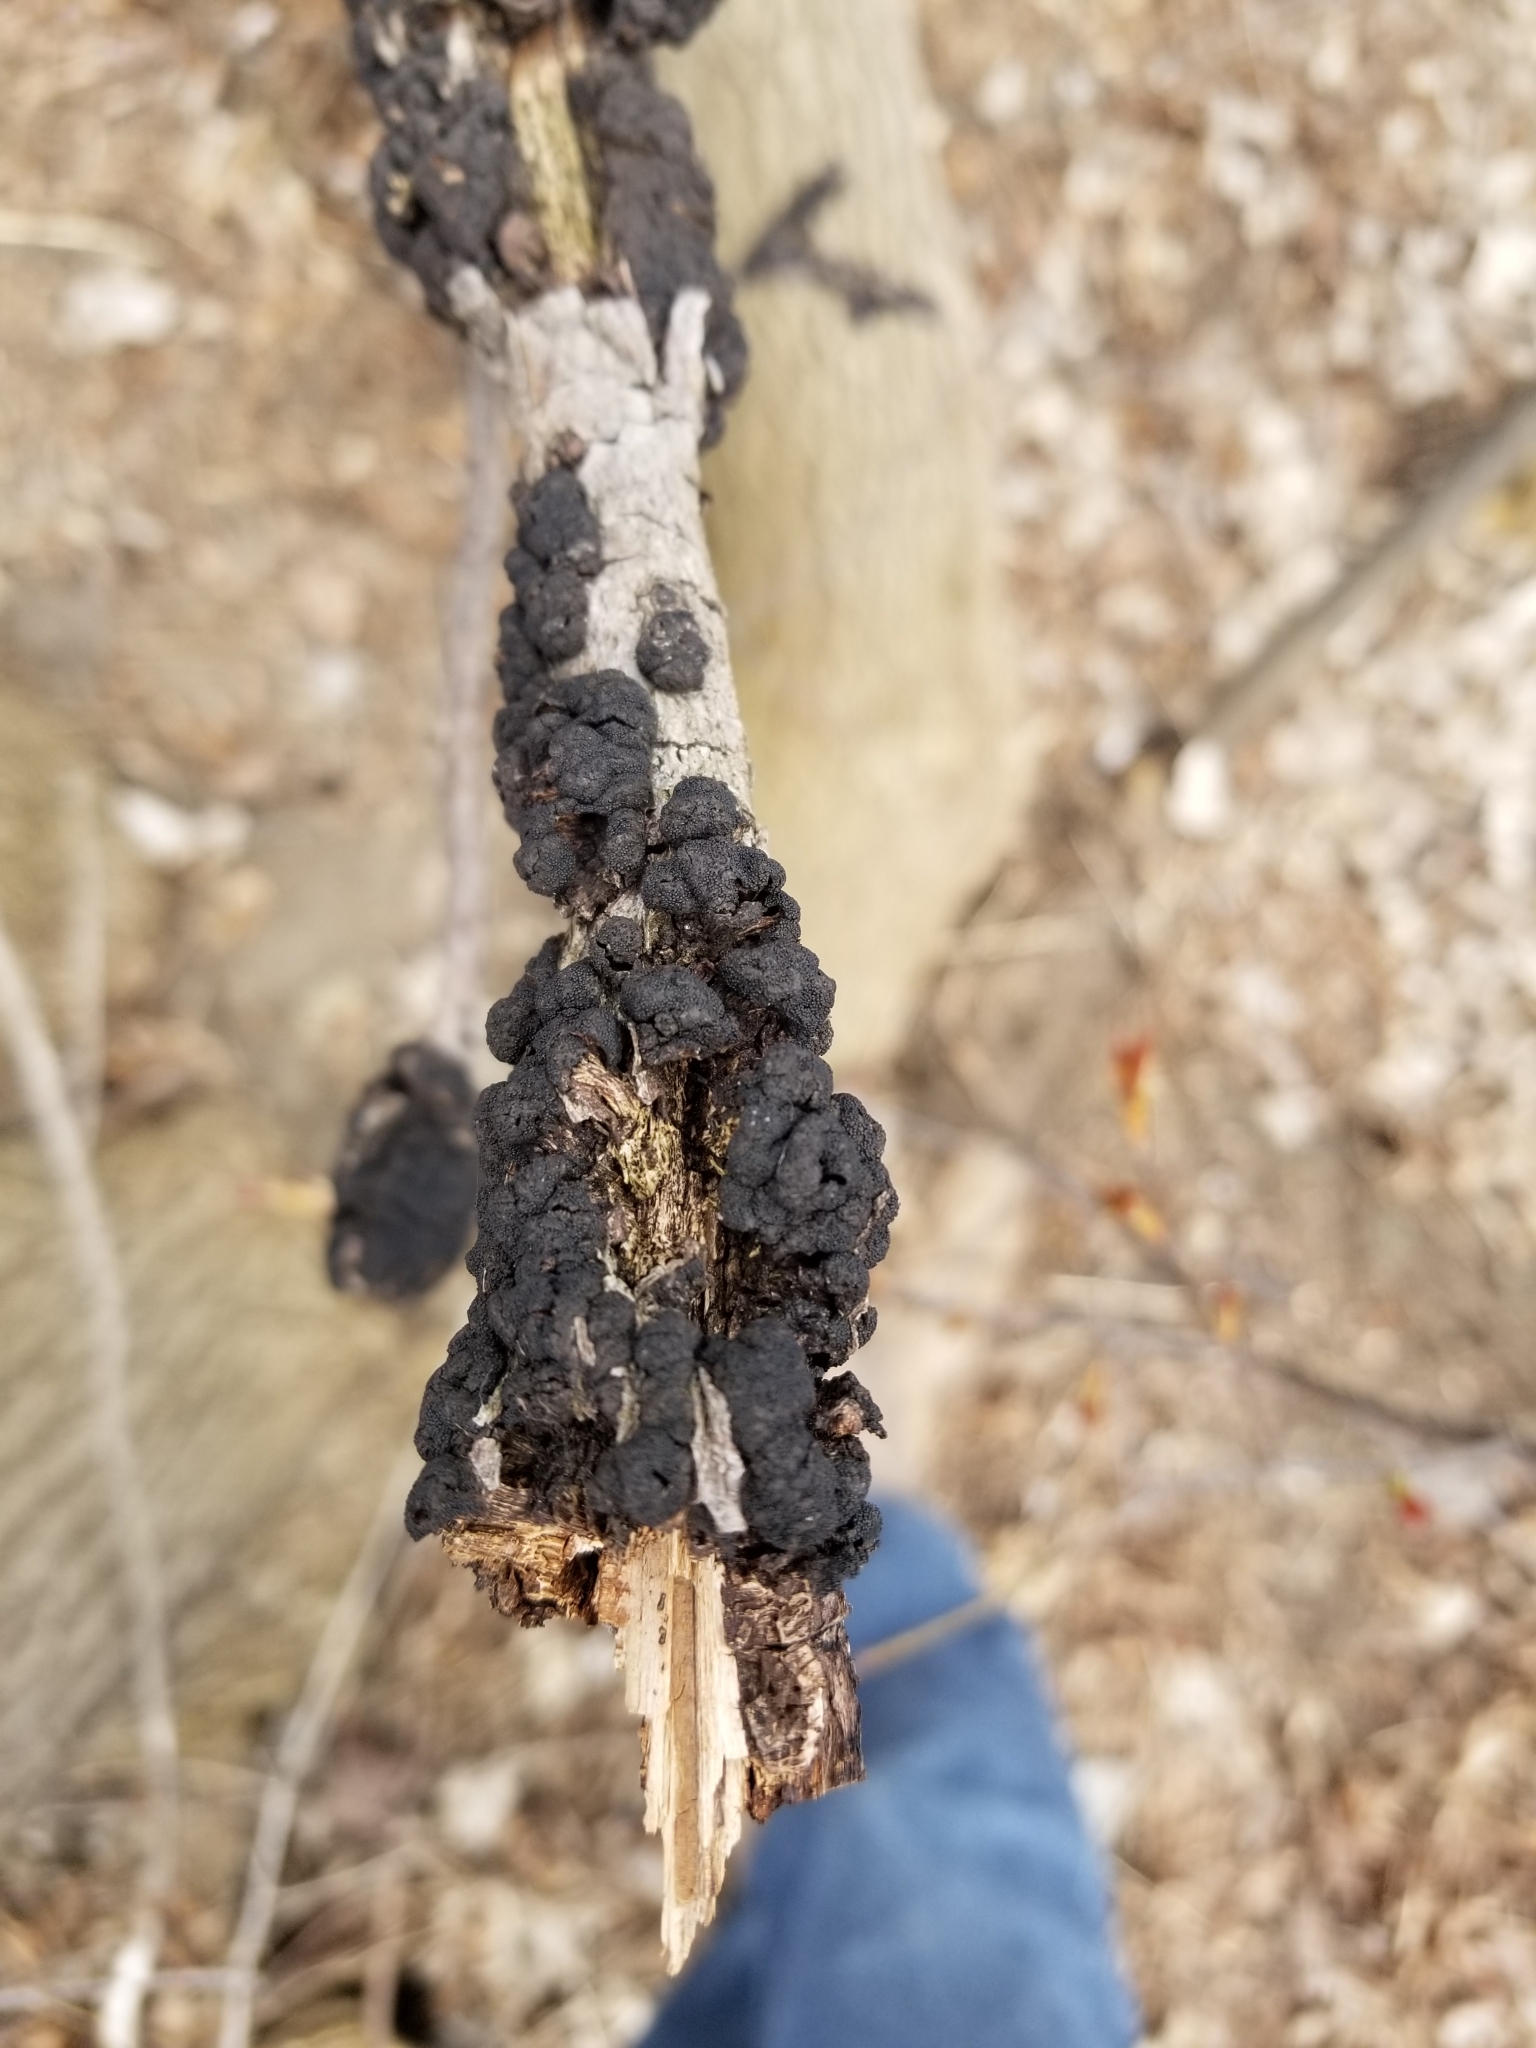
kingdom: Fungi
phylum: Ascomycota
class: Dothideomycetes
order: Venturiales
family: Venturiaceae
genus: Apiosporina
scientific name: Apiosporina morbosa
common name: Black knot
